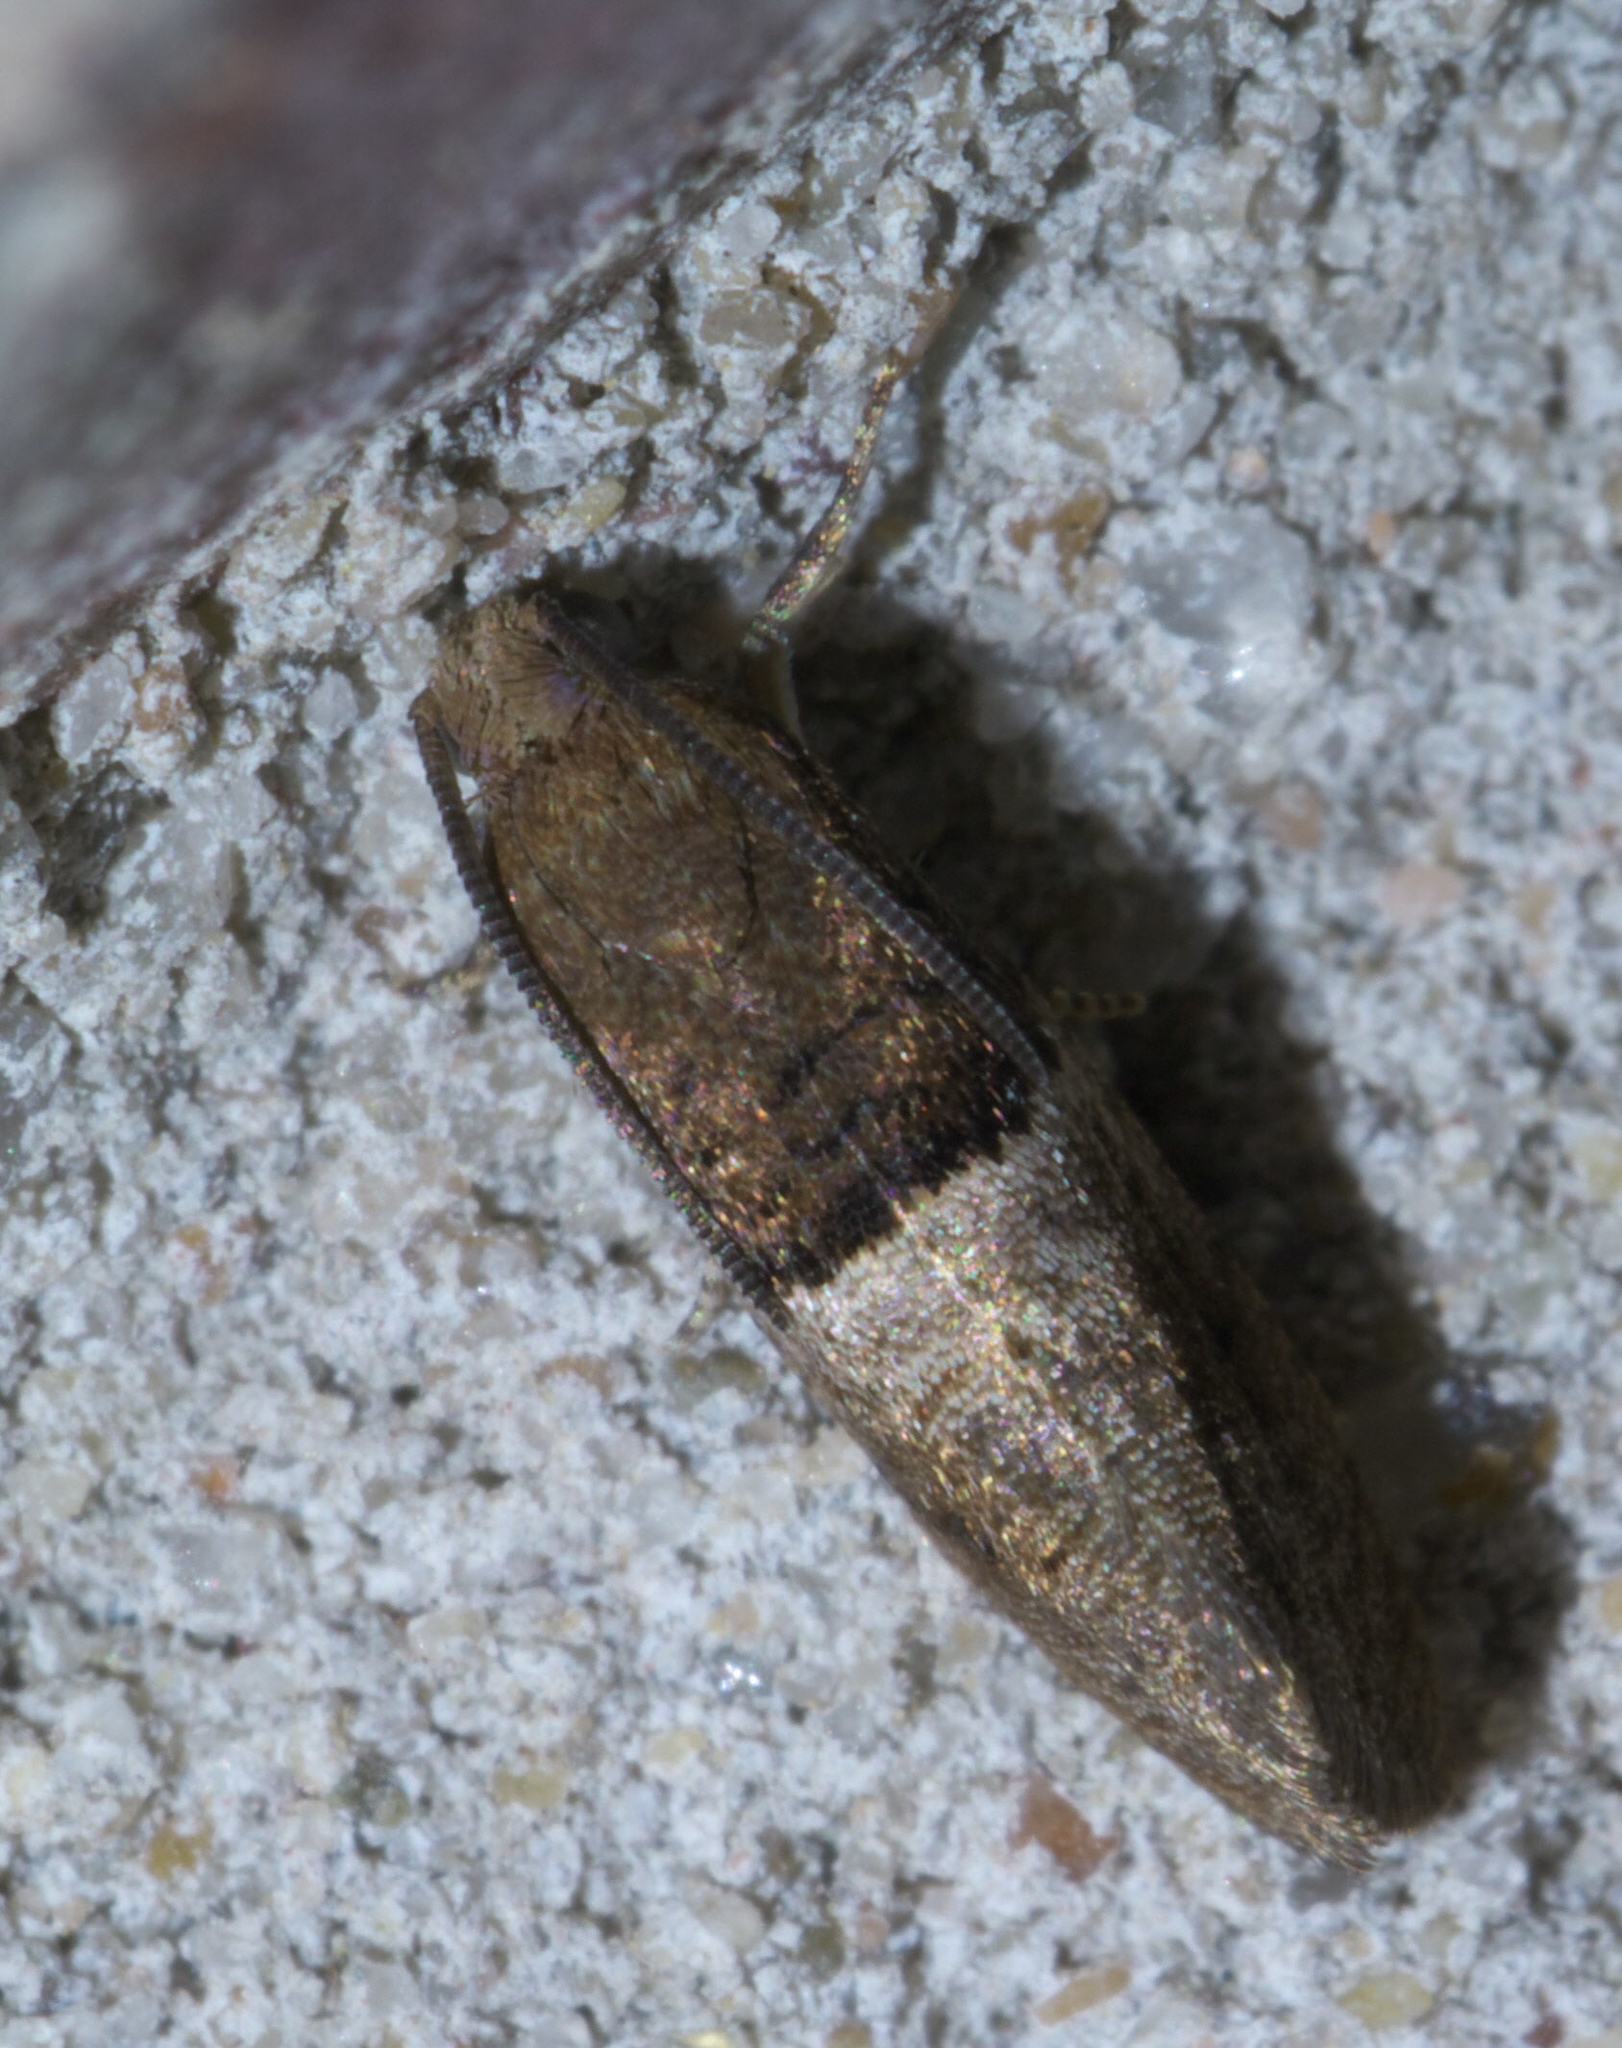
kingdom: Animalia
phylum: Arthropoda
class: Insecta
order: Lepidoptera
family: Tortricidae
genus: Larisa
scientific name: Larisa subsolana
